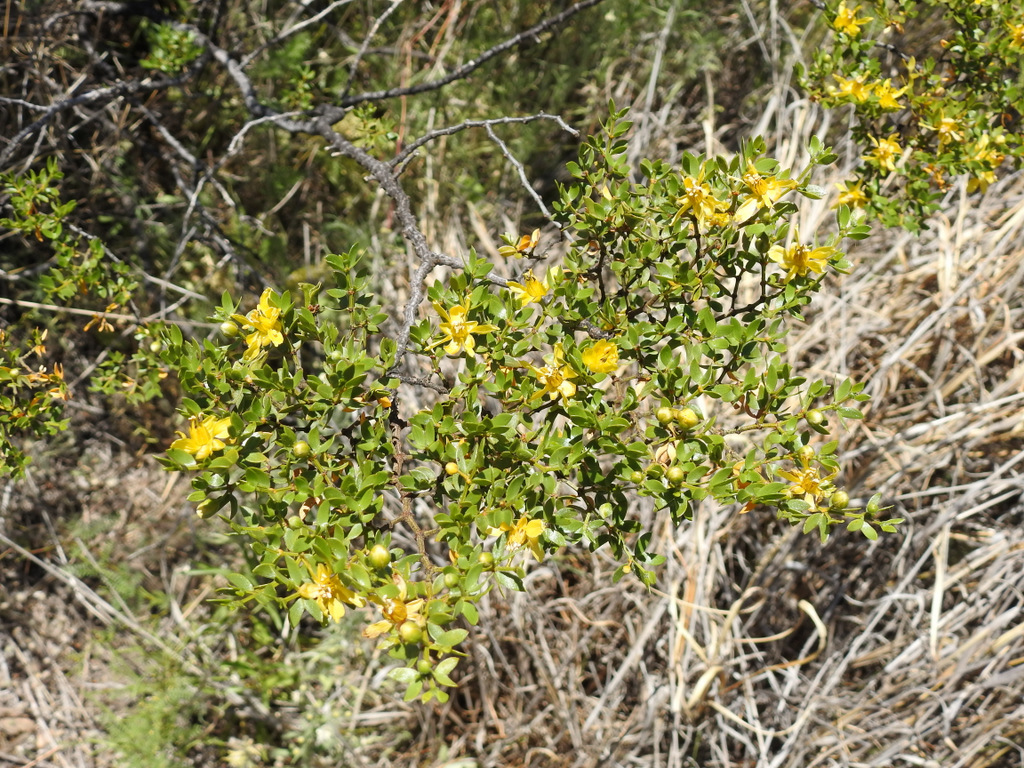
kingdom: Plantae
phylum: Tracheophyta
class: Magnoliopsida
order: Zygophyllales
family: Zygophyllaceae
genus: Larrea
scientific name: Larrea divaricata
